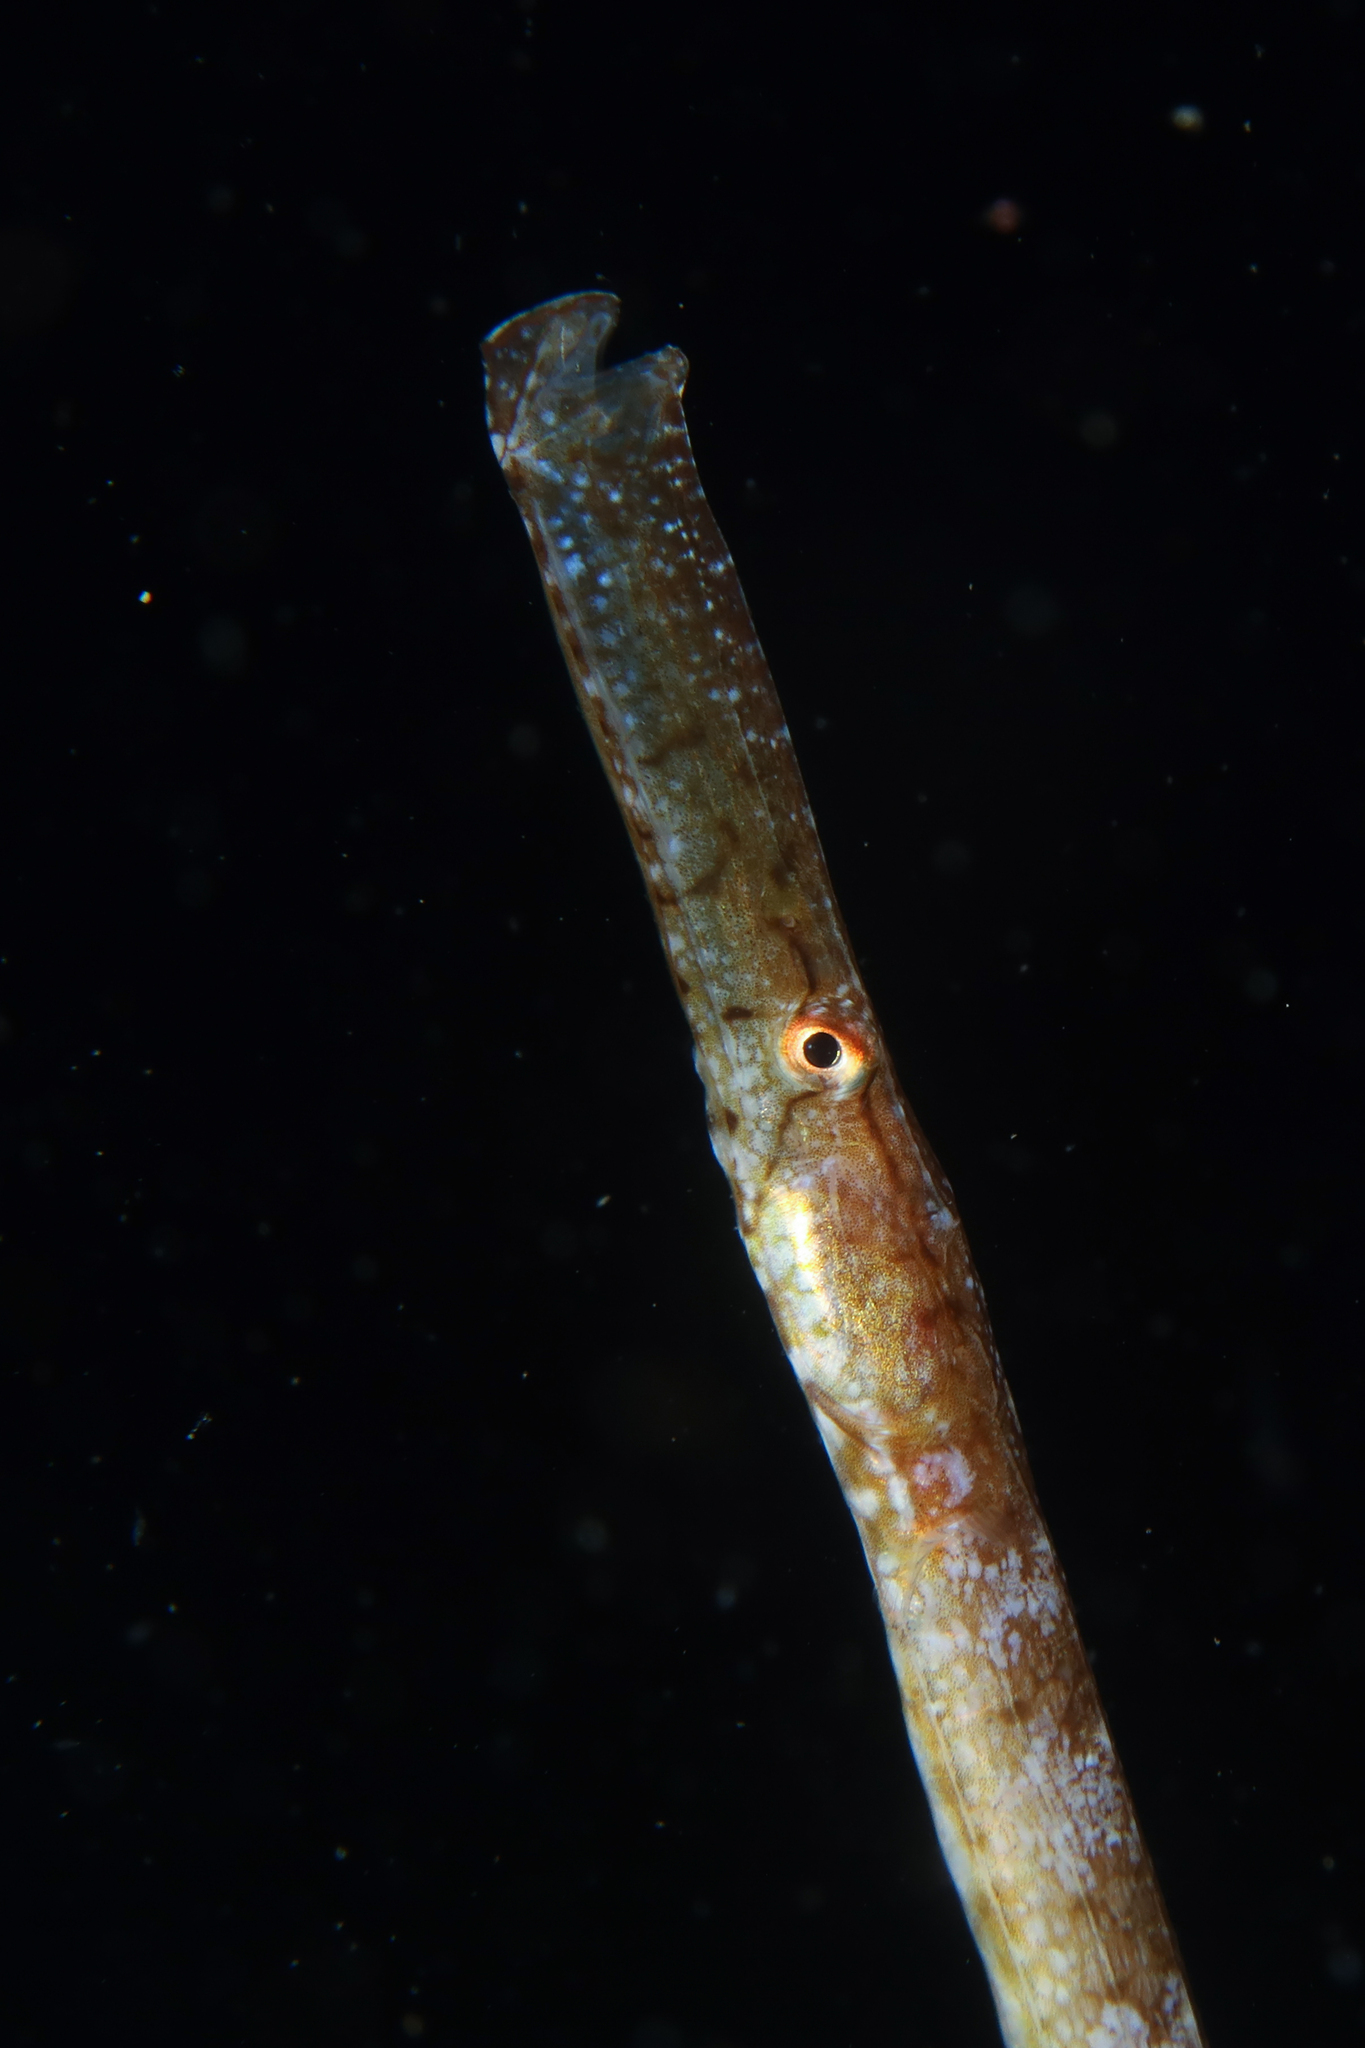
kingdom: Animalia
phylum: Chordata
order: Syngnathiformes
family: Syngnathidae
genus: Syngnathus
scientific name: Syngnathus typhle
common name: Deep-snouted pipefish
